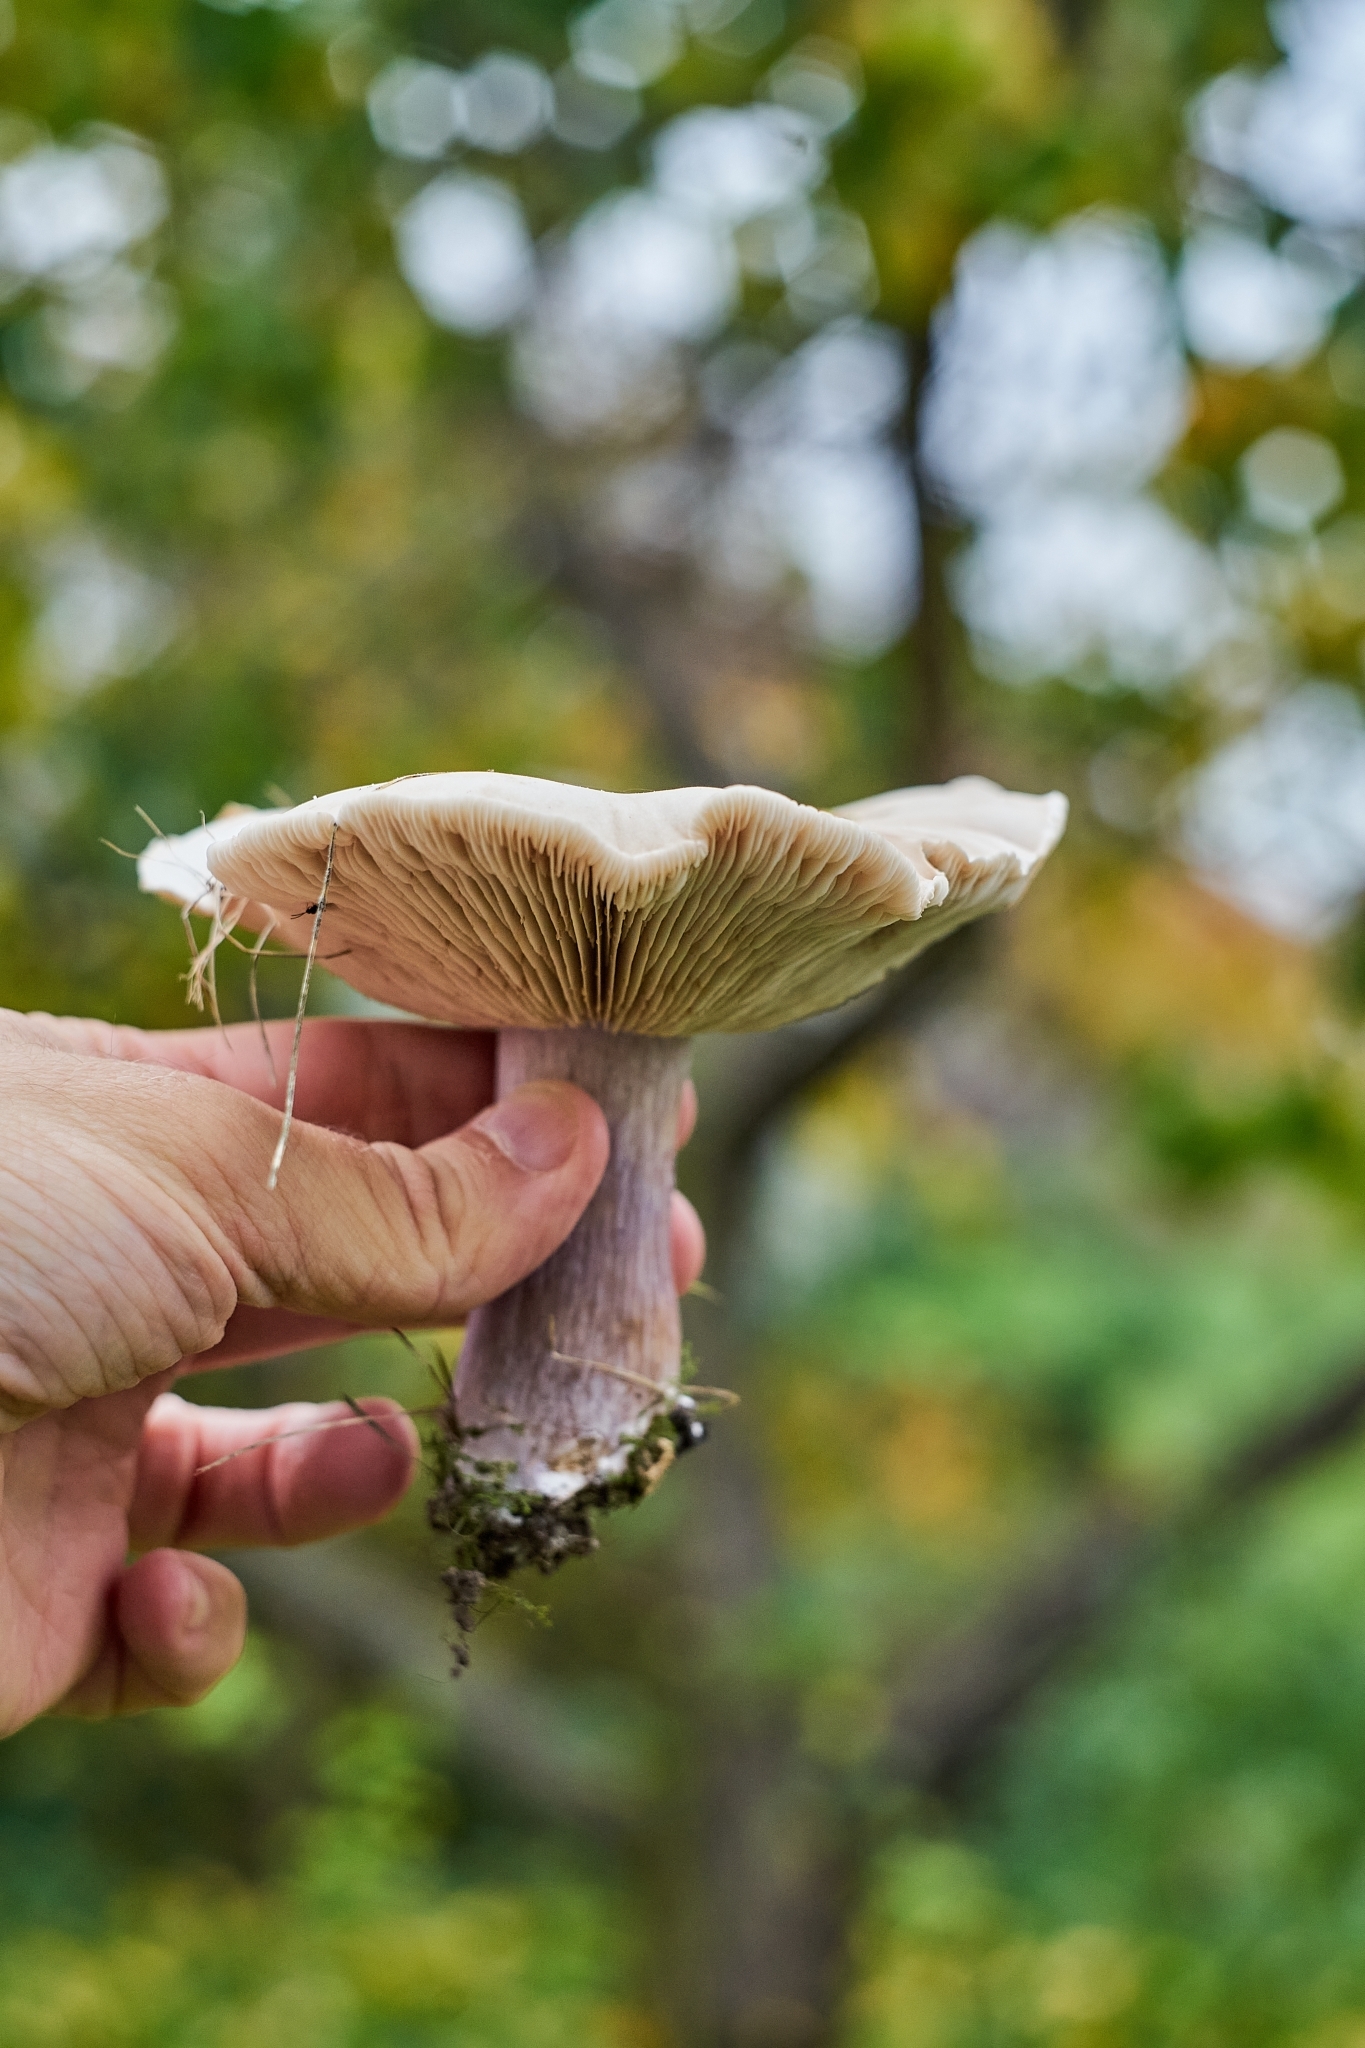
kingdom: Fungi
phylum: Basidiomycota
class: Agaricomycetes
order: Agaricales
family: Omphalotaceae
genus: Collybiopsis
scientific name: Collybiopsis peronata
